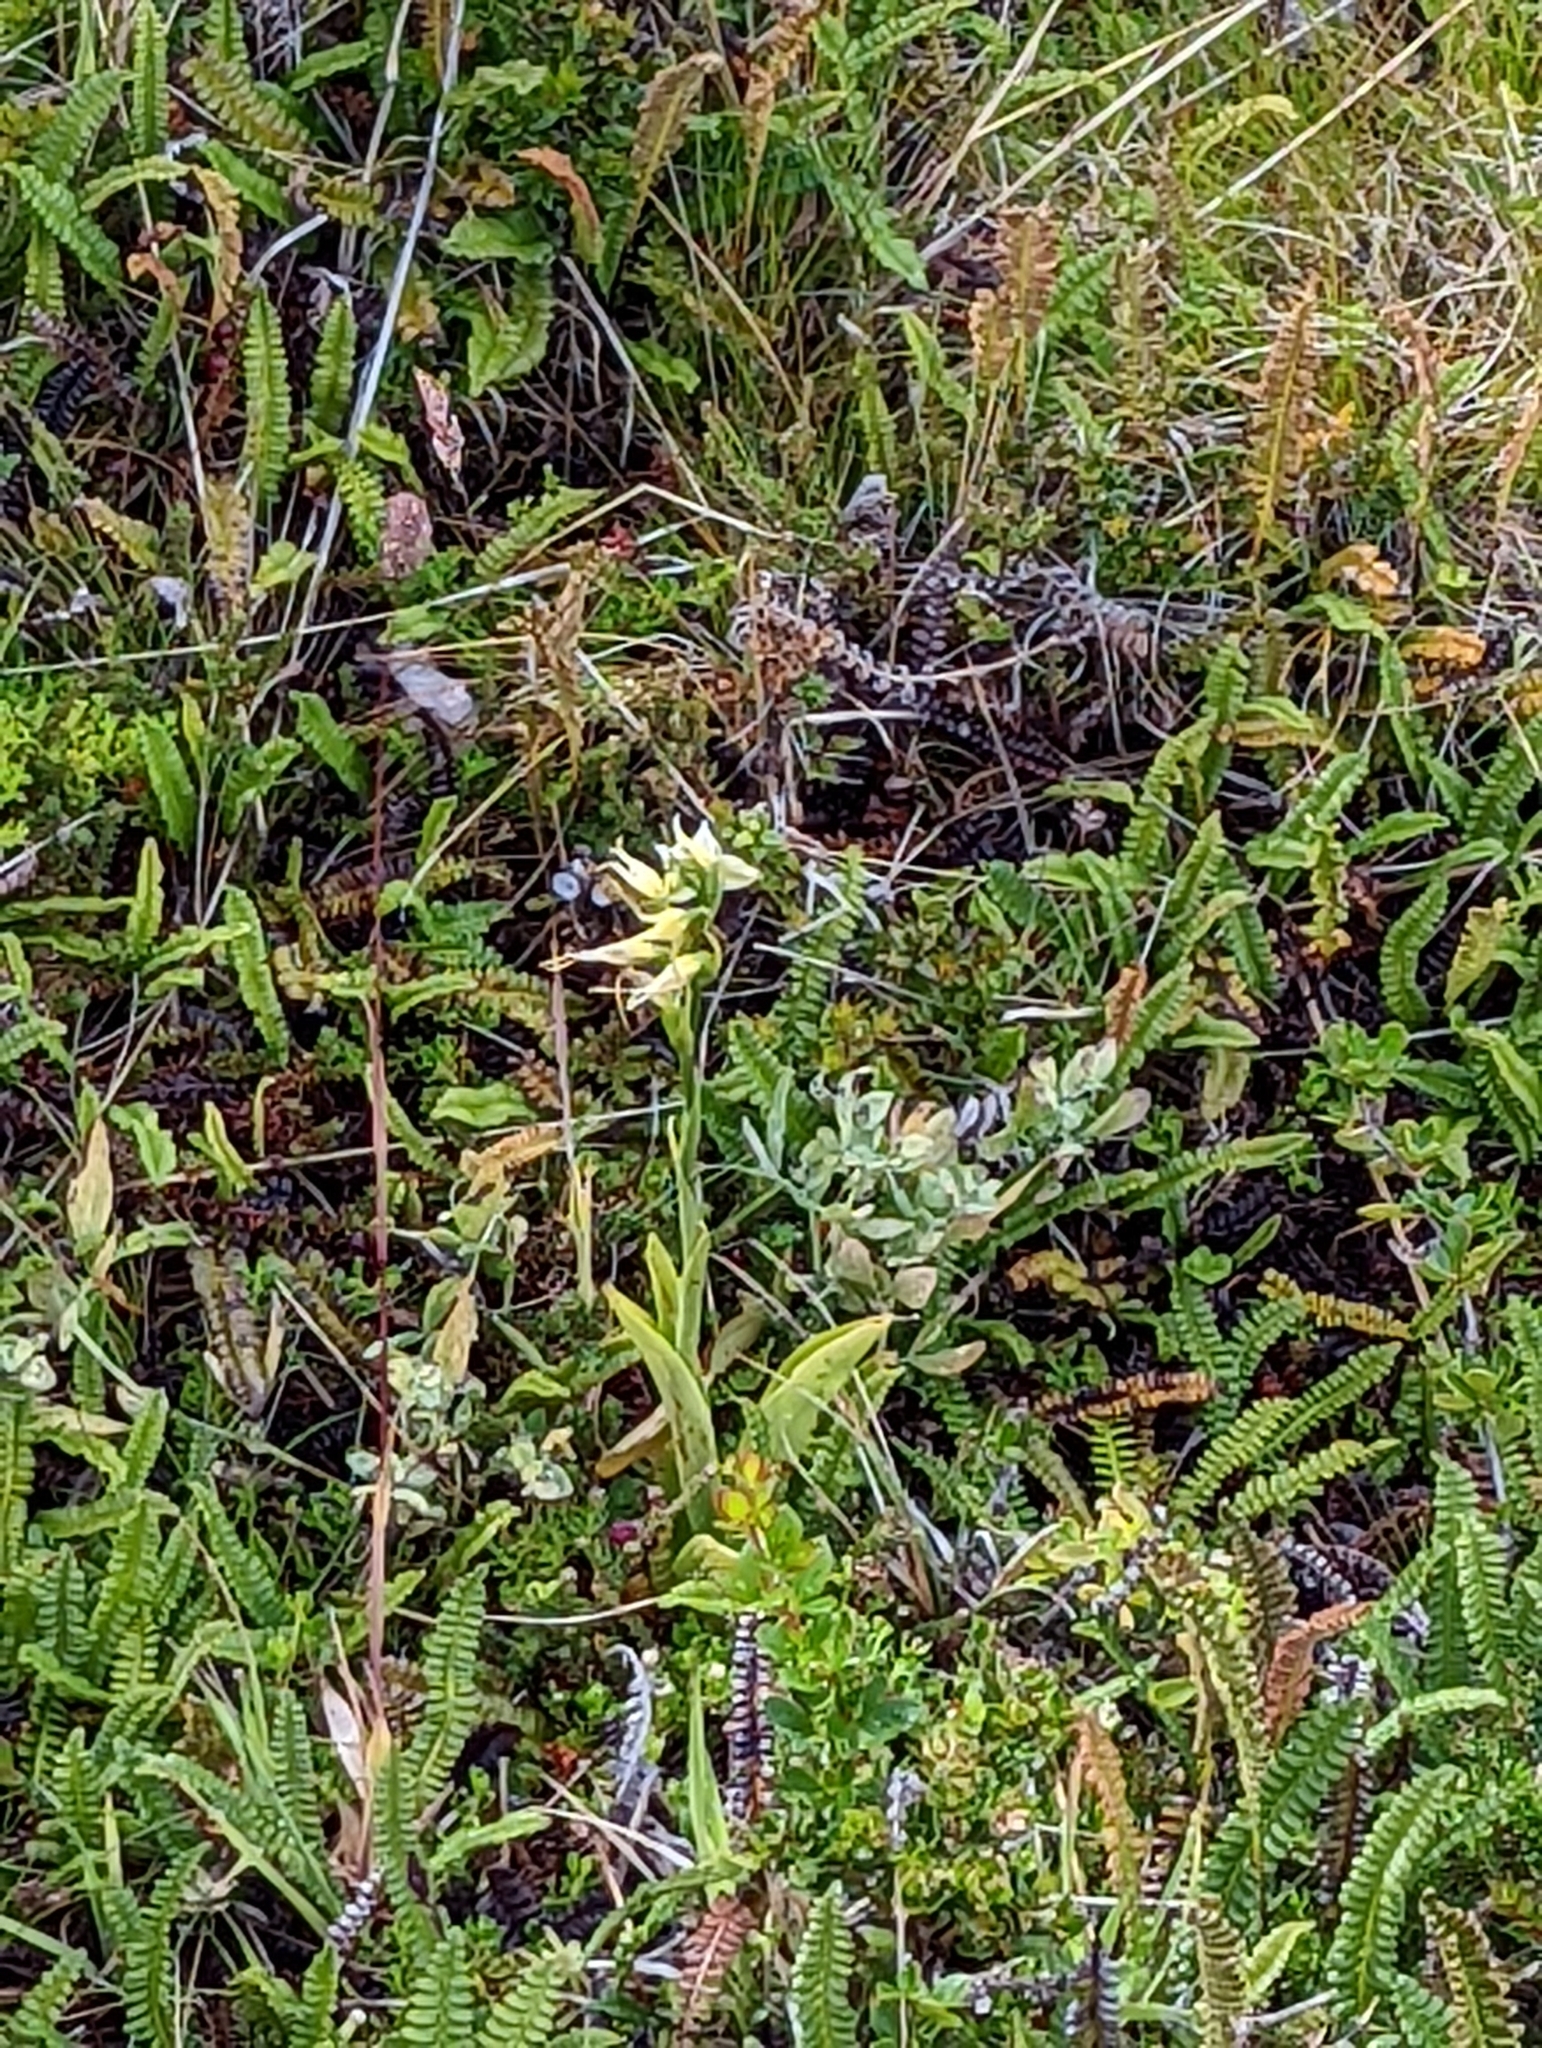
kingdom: Plantae
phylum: Tracheophyta
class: Liliopsida
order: Asparagales
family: Orchidaceae
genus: Gavilea
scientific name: Gavilea araucana
